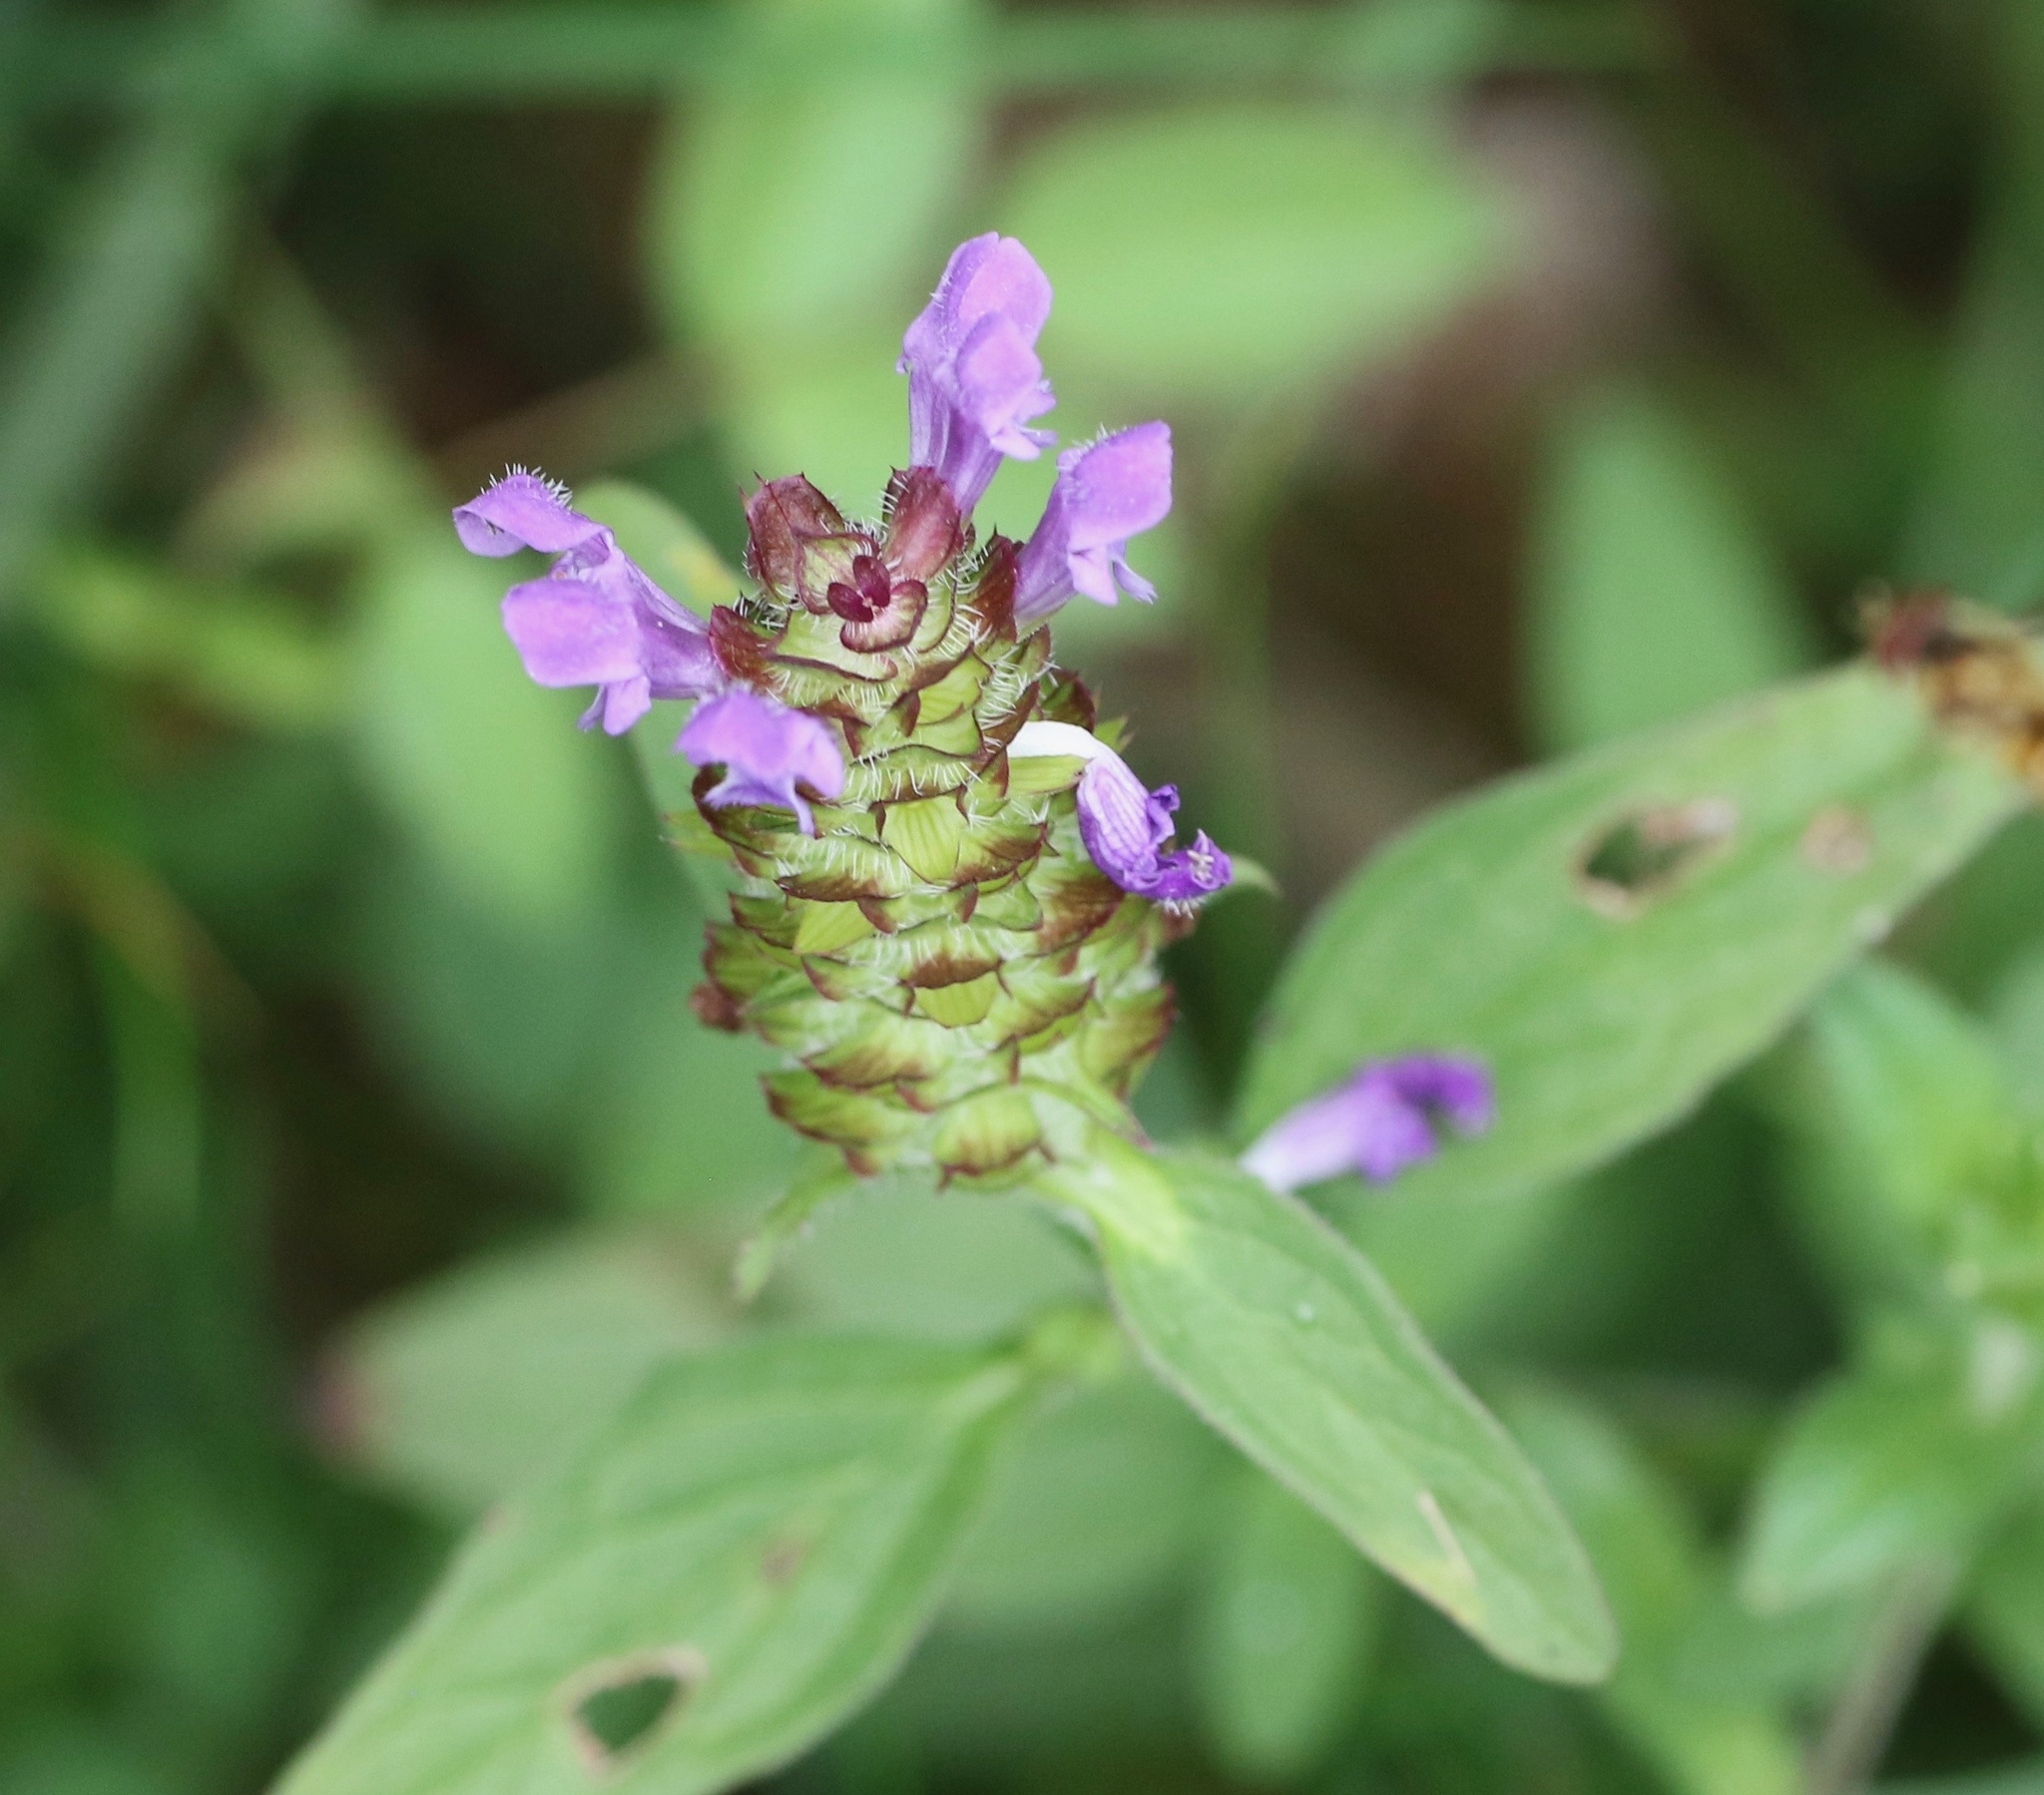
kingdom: Plantae
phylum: Tracheophyta
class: Magnoliopsida
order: Lamiales
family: Lamiaceae
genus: Prunella
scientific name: Prunella vulgaris
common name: Heal-all
